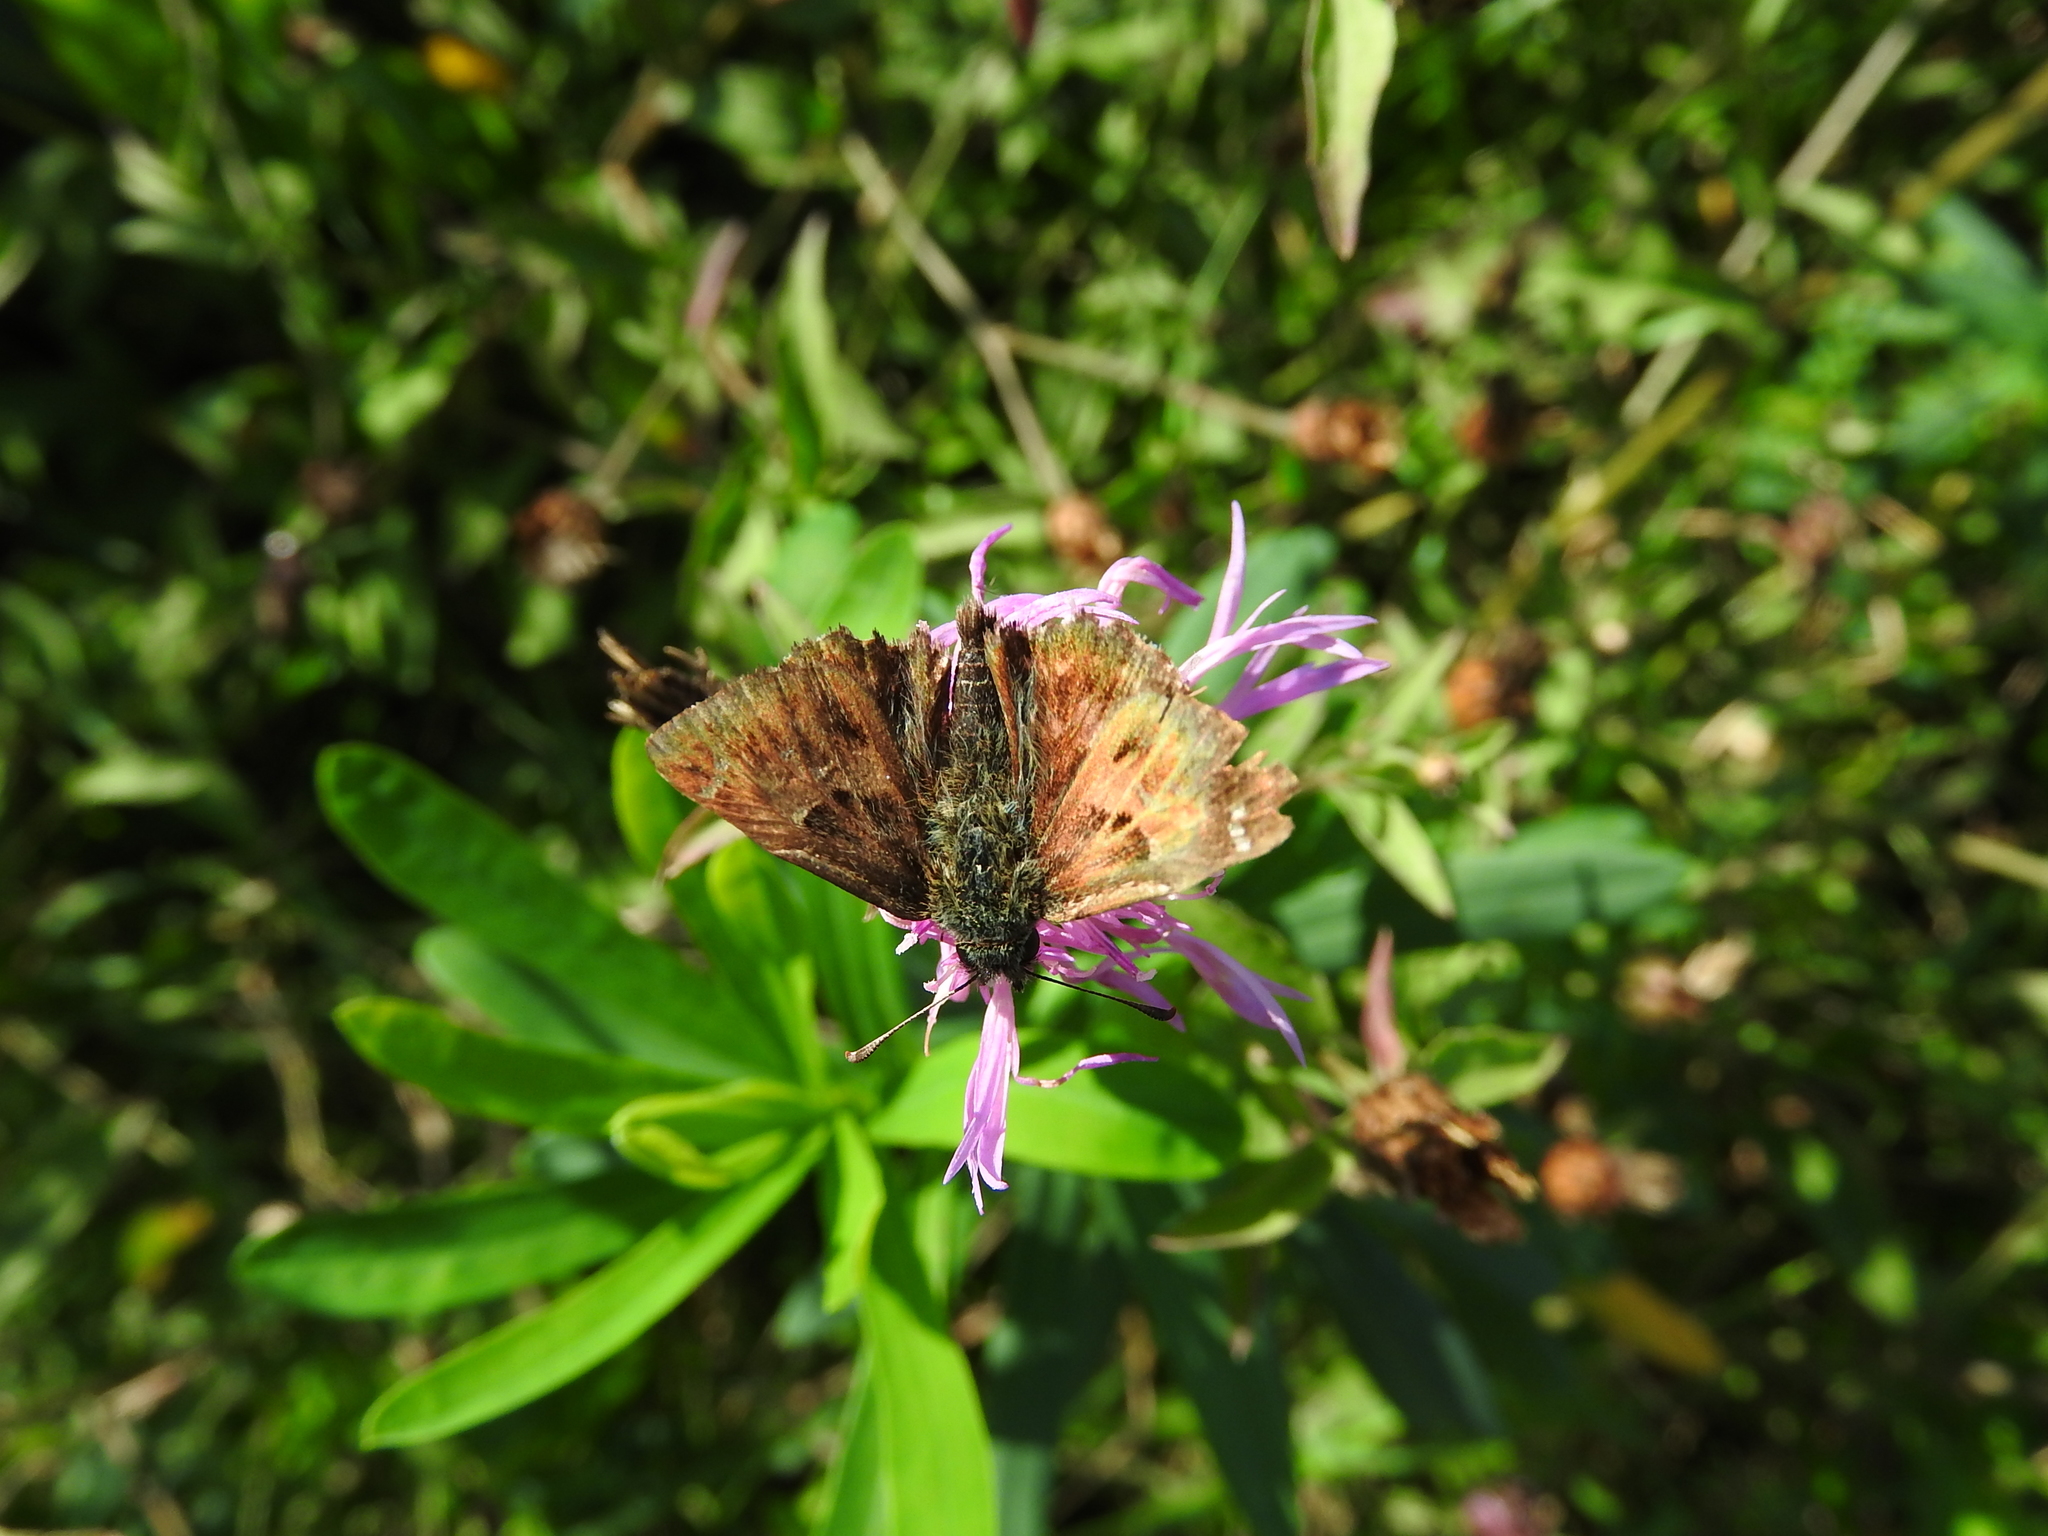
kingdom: Animalia
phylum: Arthropoda
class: Insecta
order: Lepidoptera
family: Hesperiidae
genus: Carcharodus
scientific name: Carcharodus alceae
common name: Mallow skipper
